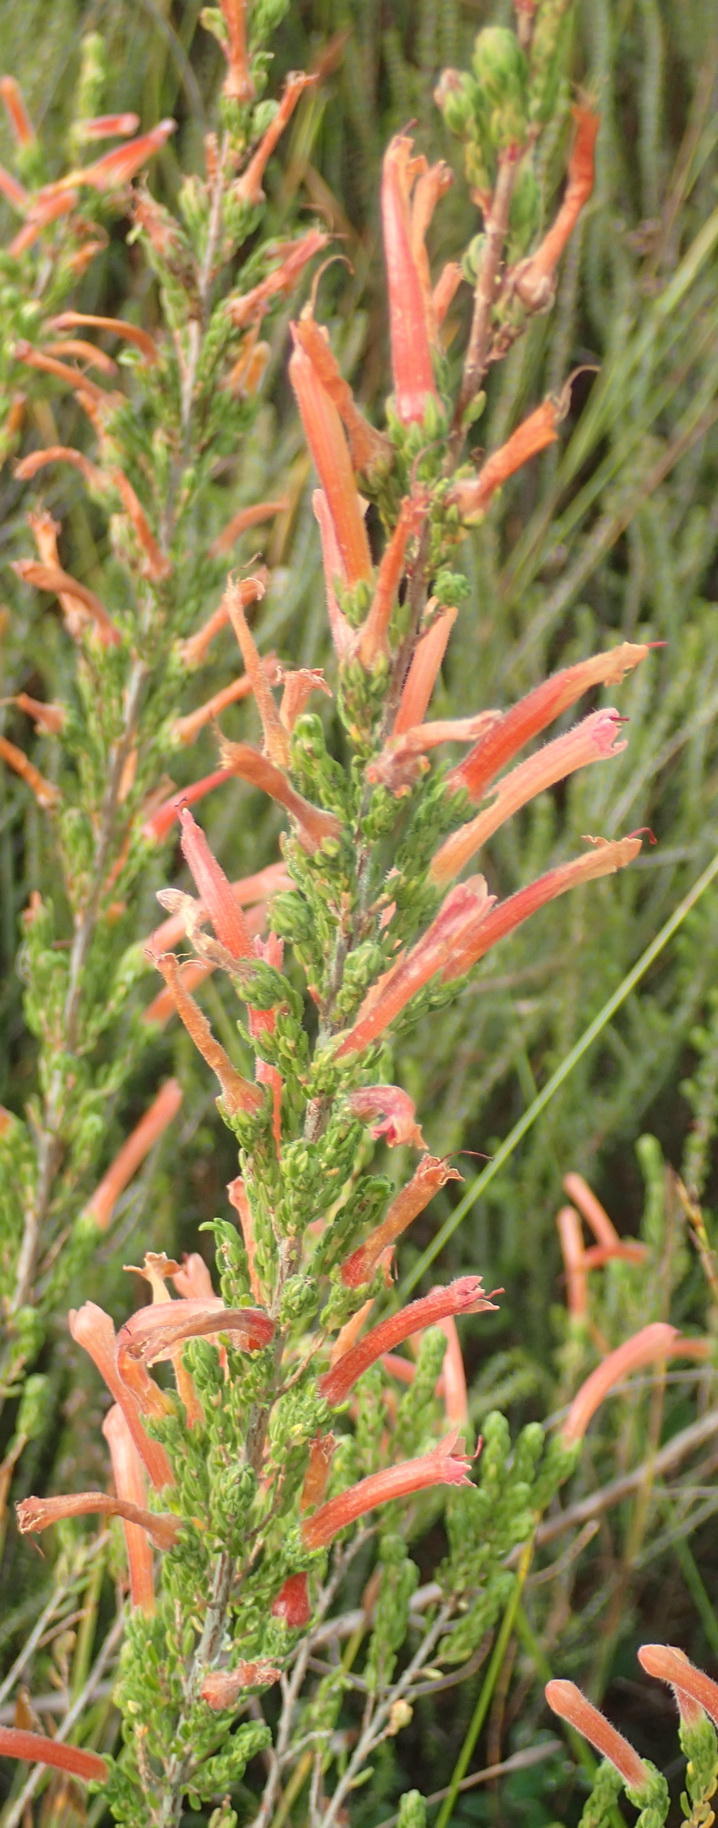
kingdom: Plantae
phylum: Tracheophyta
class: Magnoliopsida
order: Ericales
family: Ericaceae
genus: Erica
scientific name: Erica curviflora
